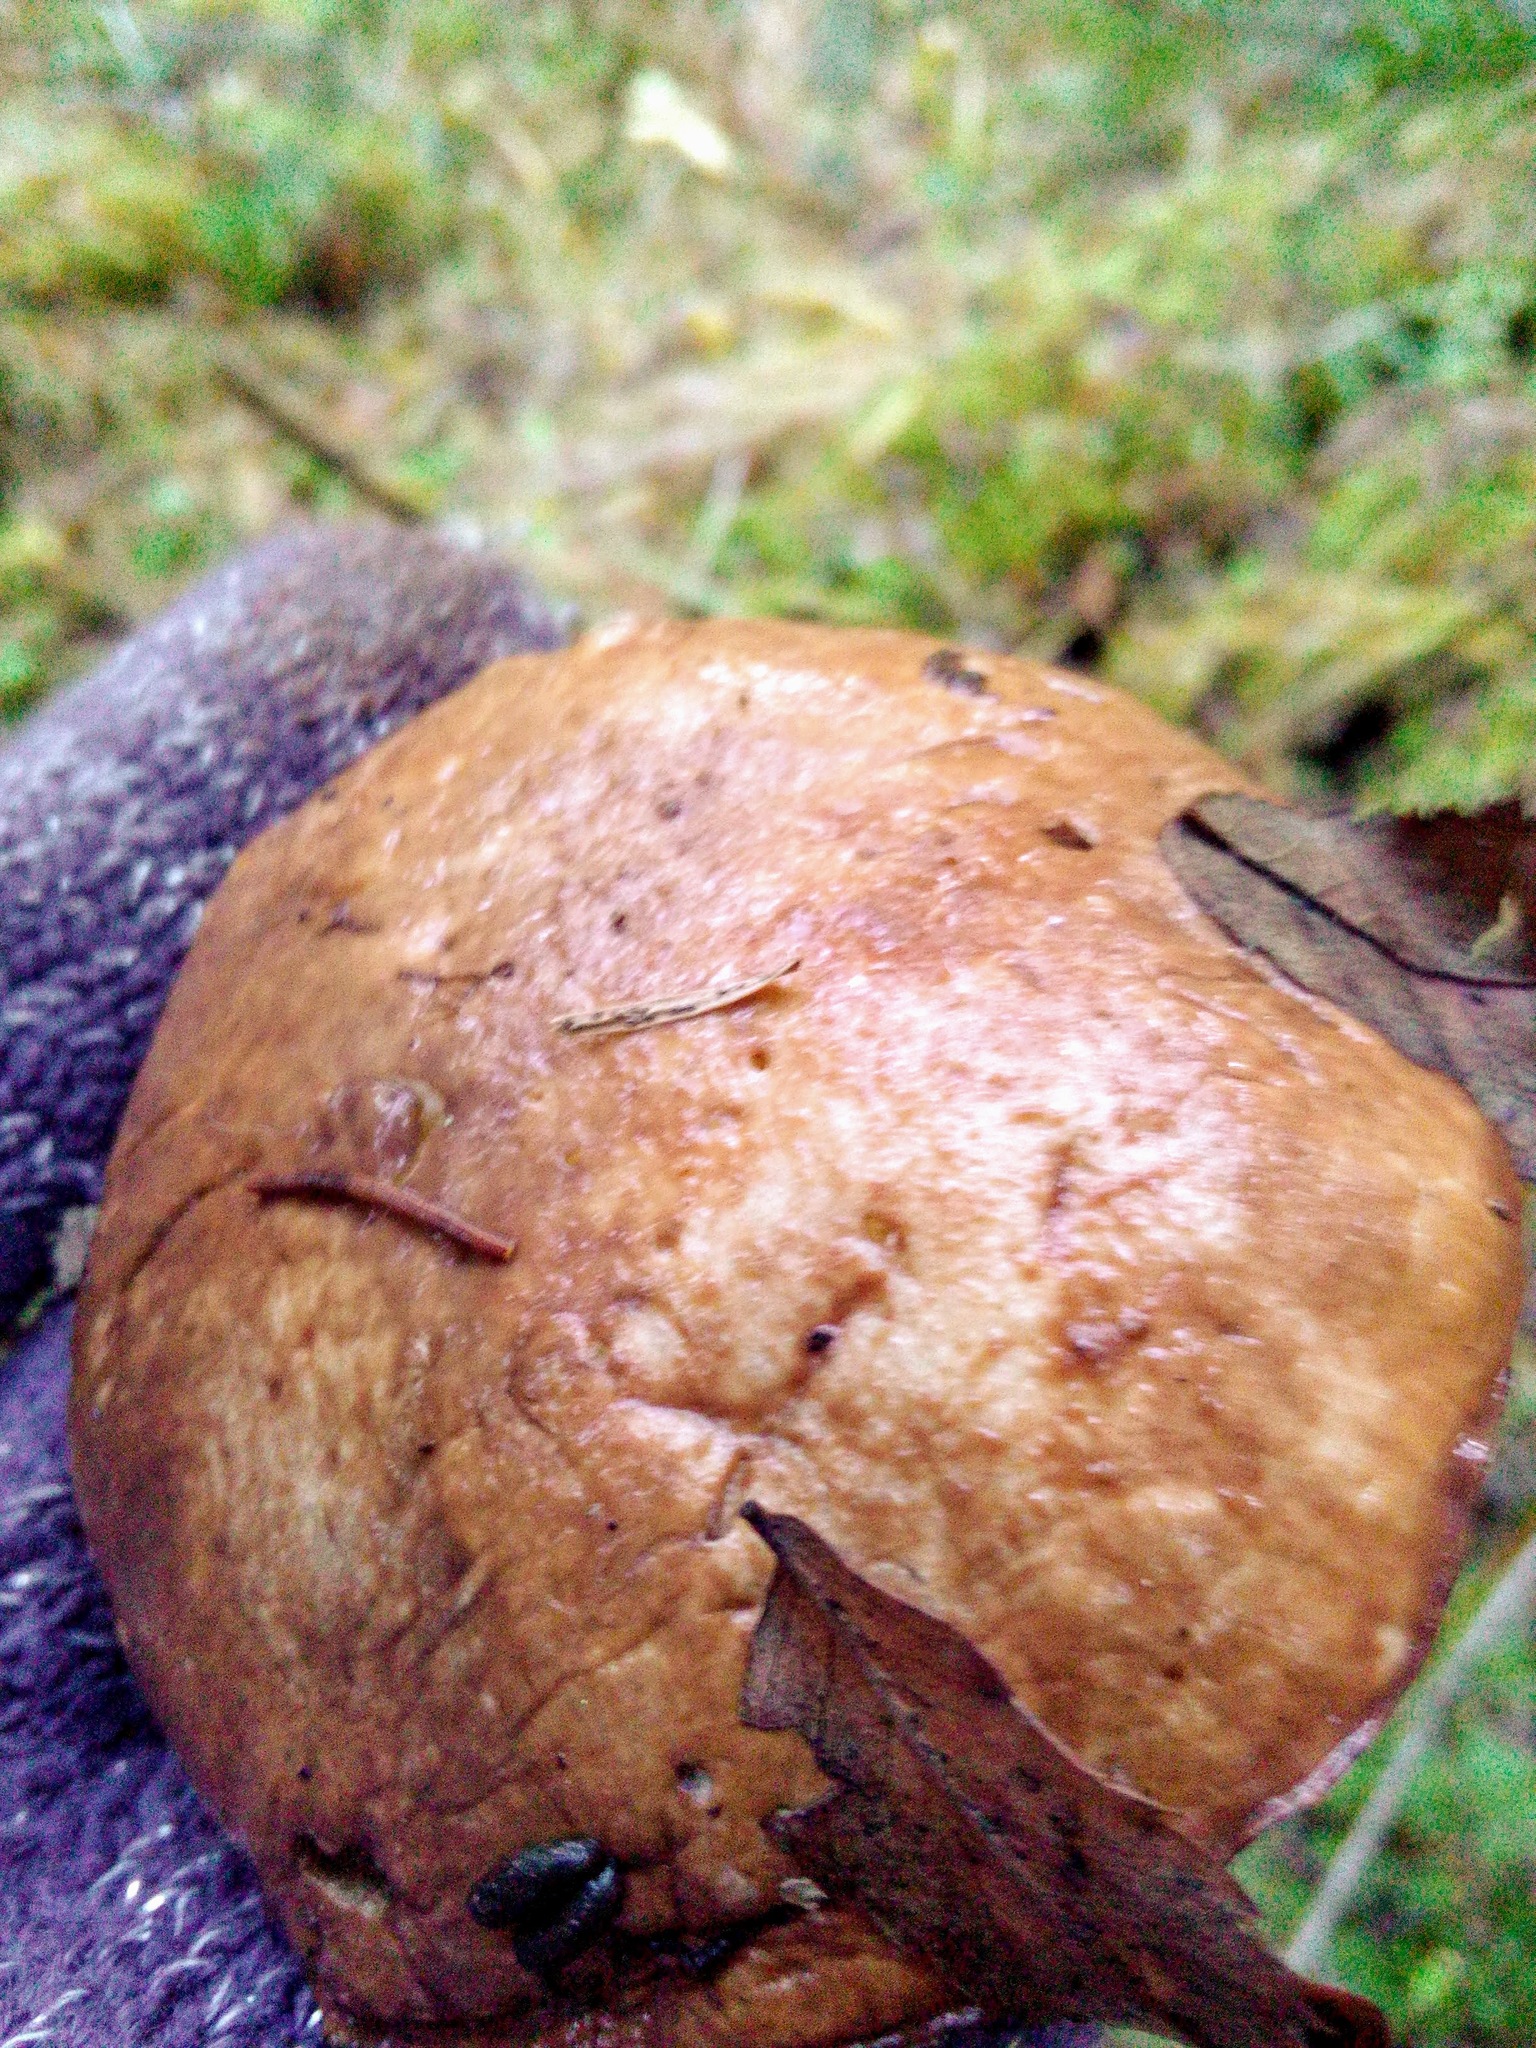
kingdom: Fungi
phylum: Basidiomycota
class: Agaricomycetes
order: Boletales
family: Suillaceae
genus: Suillus
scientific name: Suillus bovinus
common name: Bovine bolete
